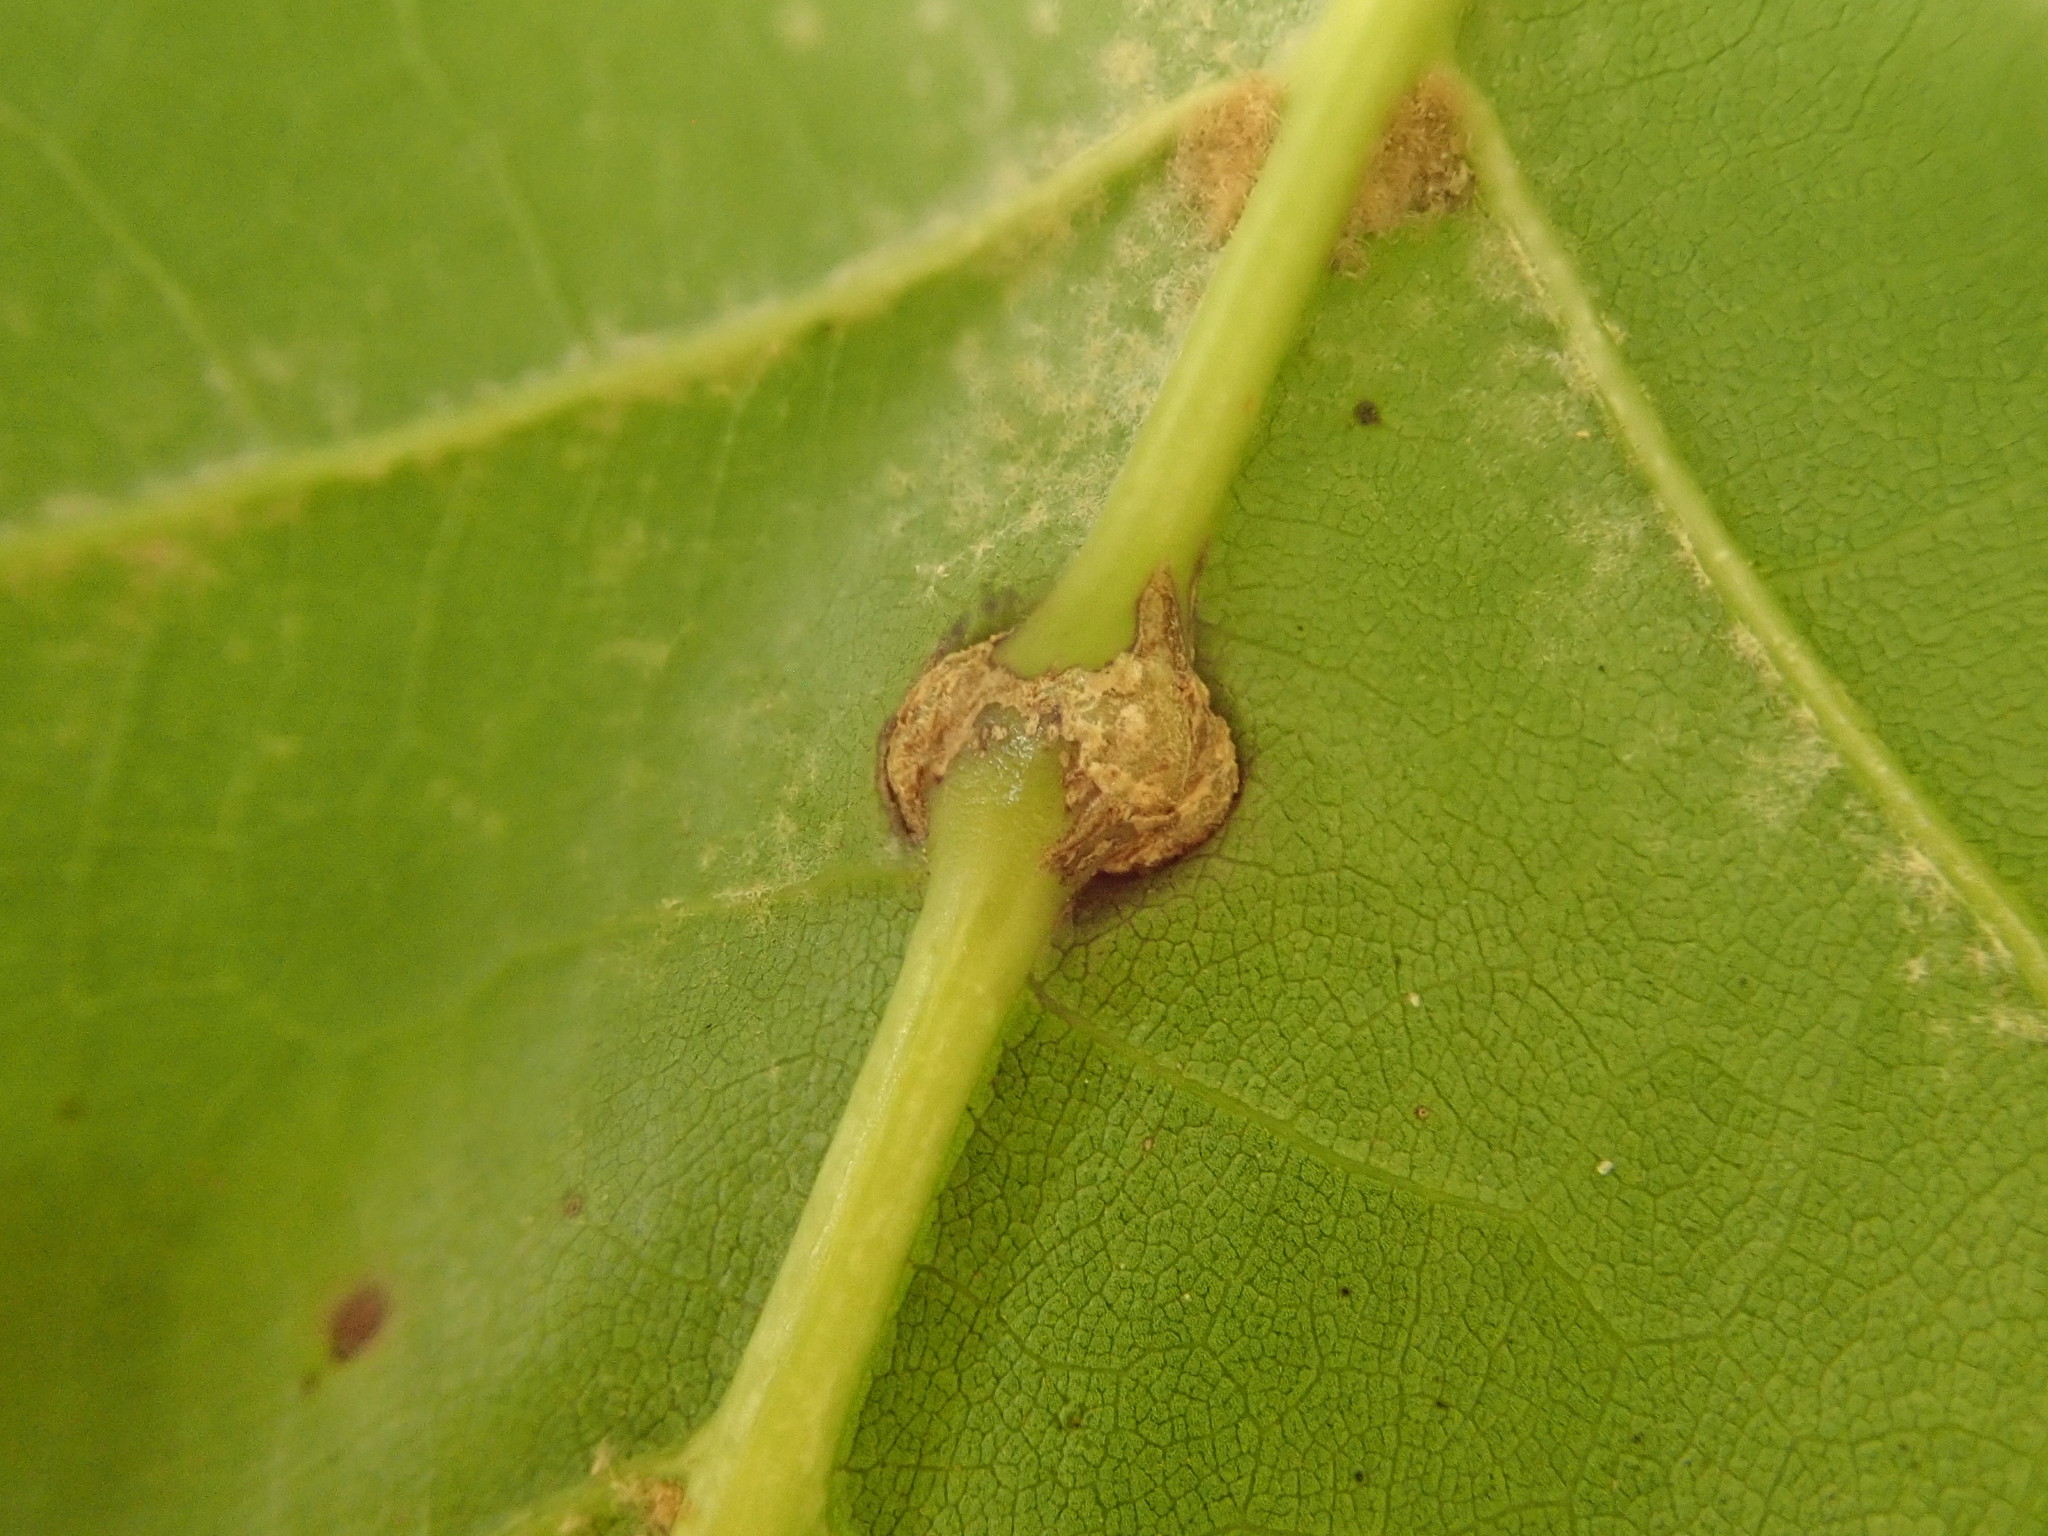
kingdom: Animalia
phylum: Arthropoda
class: Insecta
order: Hymenoptera
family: Cynipidae
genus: Kokkocynips
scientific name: Kokkocynips decidua
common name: Oak wheat gall
